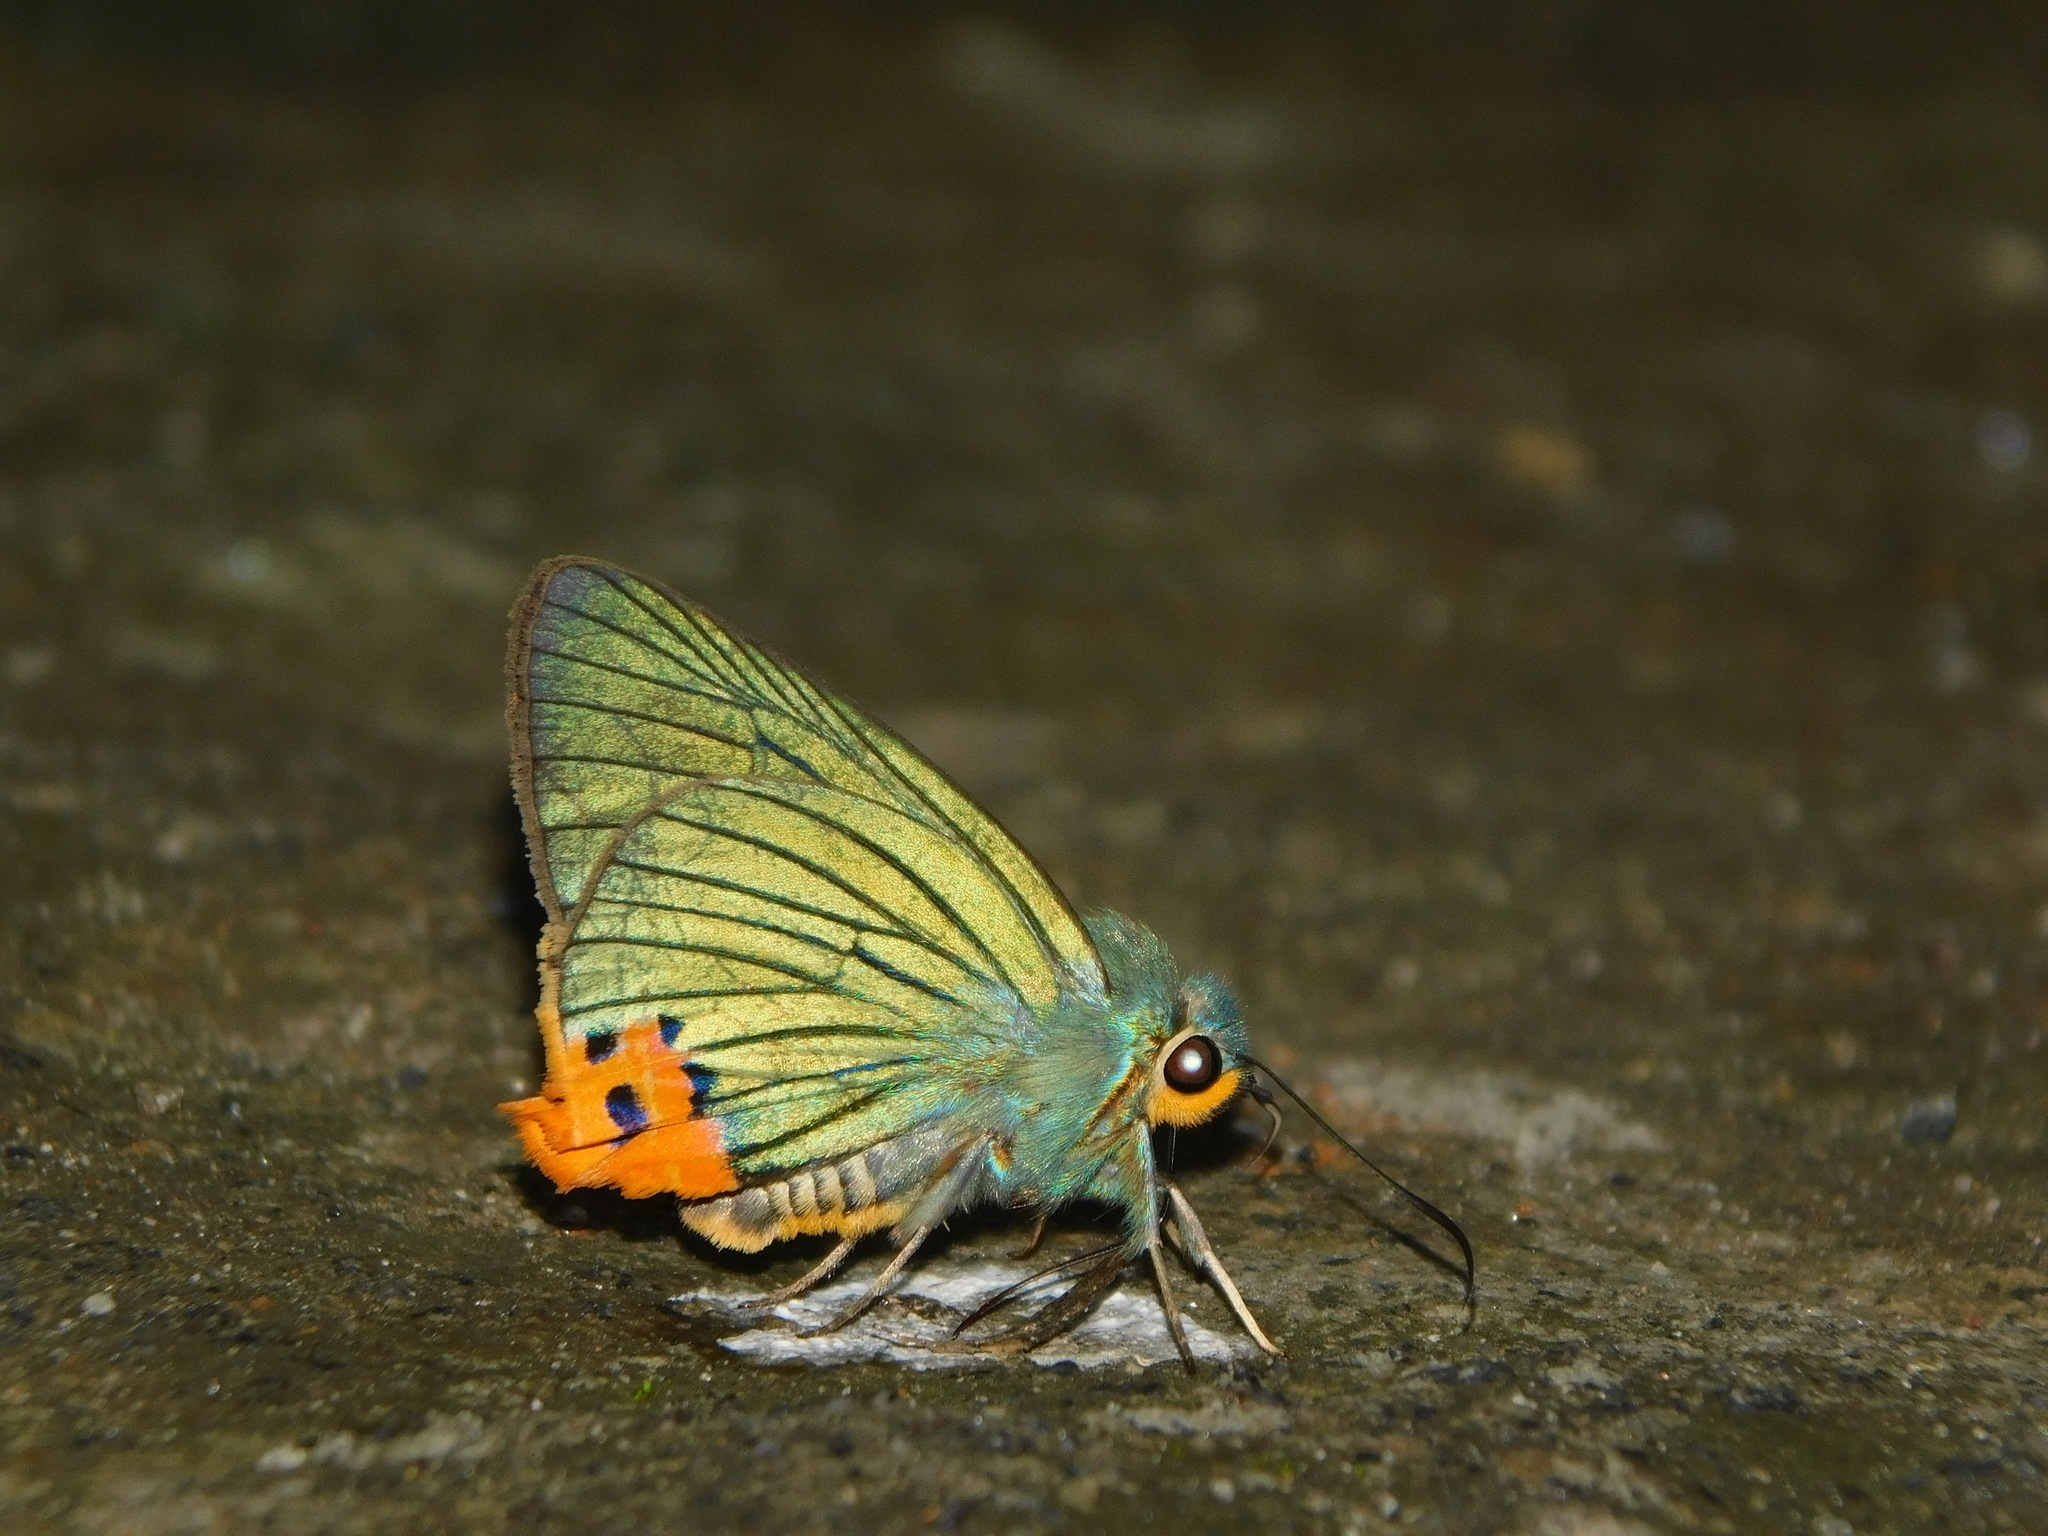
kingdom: Animalia
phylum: Arthropoda
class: Insecta
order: Lepidoptera
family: Hesperiidae
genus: Choaspes
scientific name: Choaspes benjaminii
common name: Indian awlking
